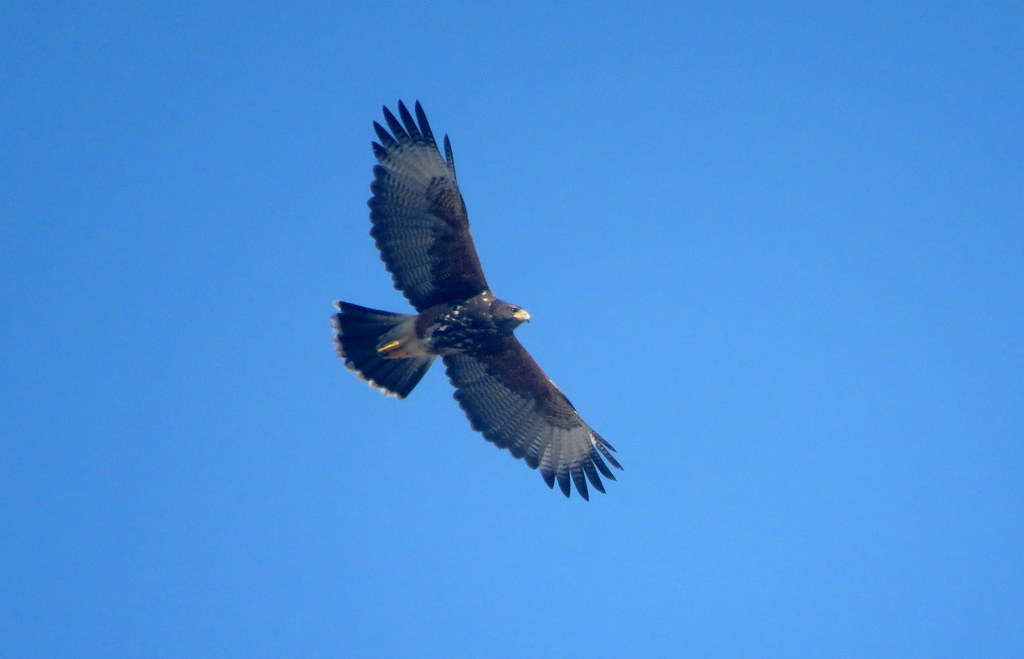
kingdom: Animalia
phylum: Chordata
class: Aves
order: Accipitriformes
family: Accipitridae
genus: Parabuteo
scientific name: Parabuteo unicinctus
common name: Harris's hawk
